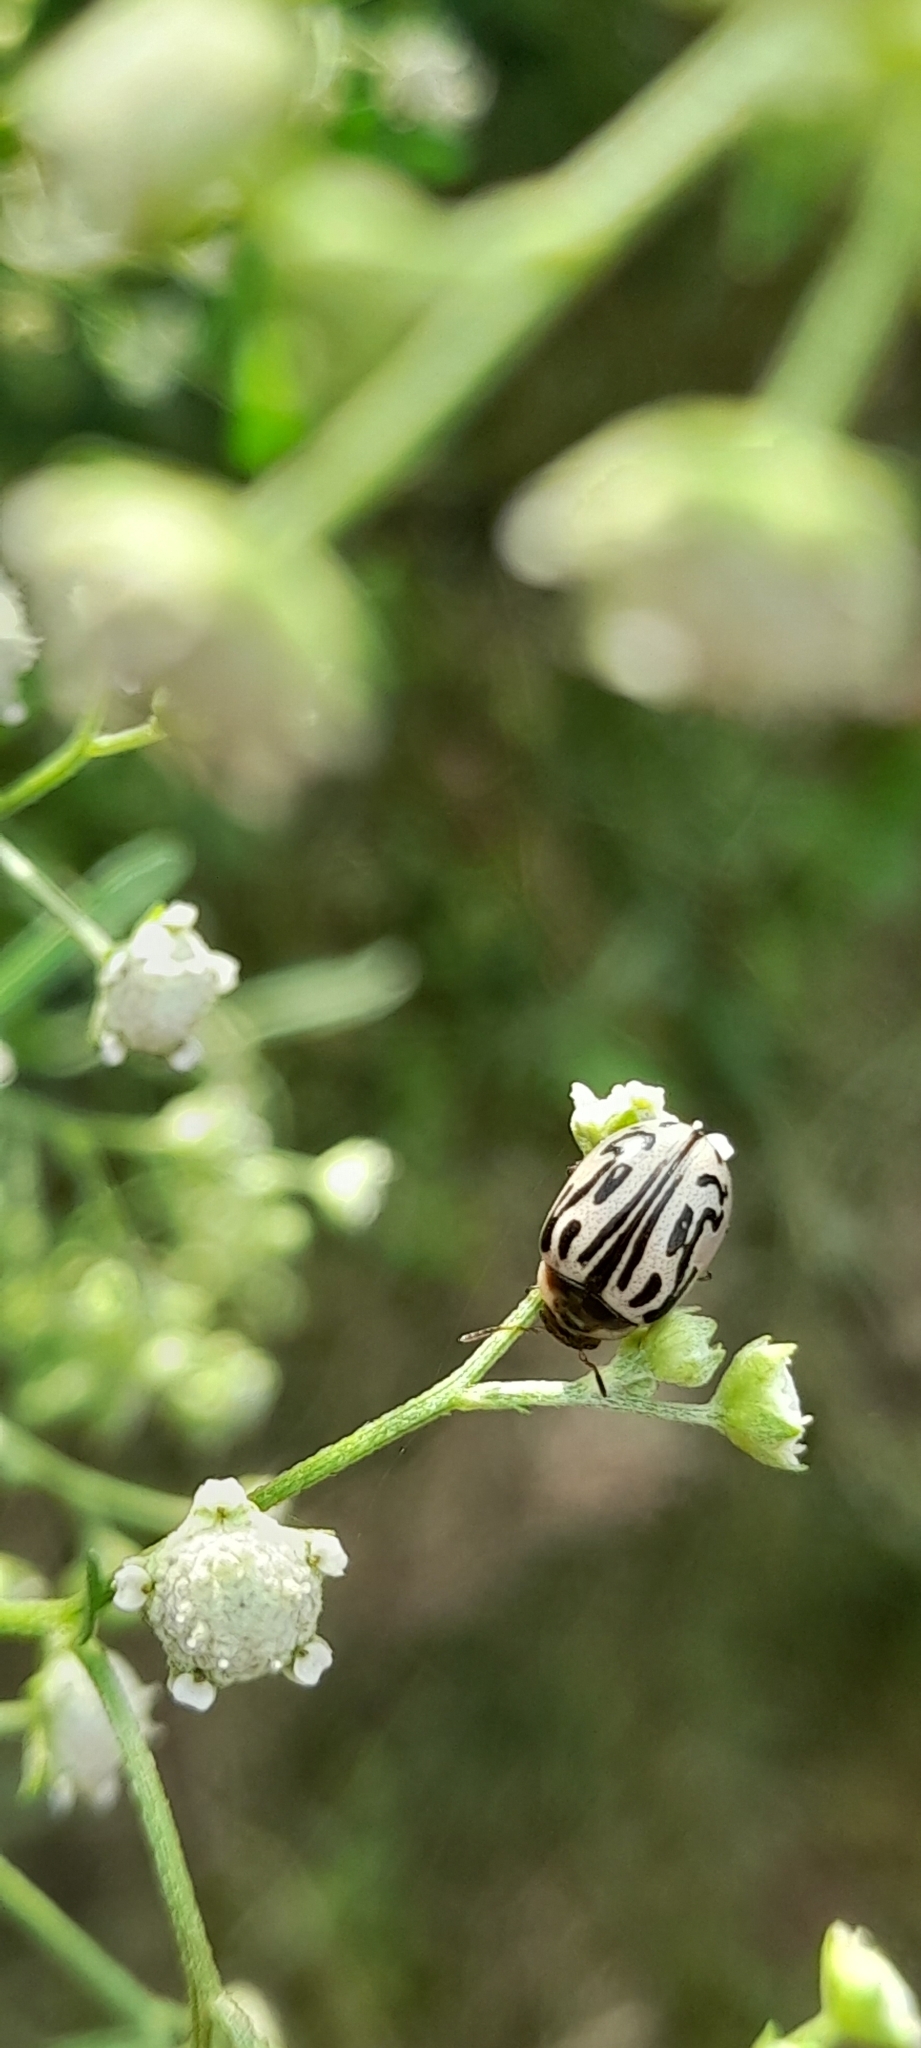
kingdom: Animalia
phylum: Arthropoda
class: Insecta
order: Coleoptera
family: Chrysomelidae
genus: Calligrapha
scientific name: Calligrapha
